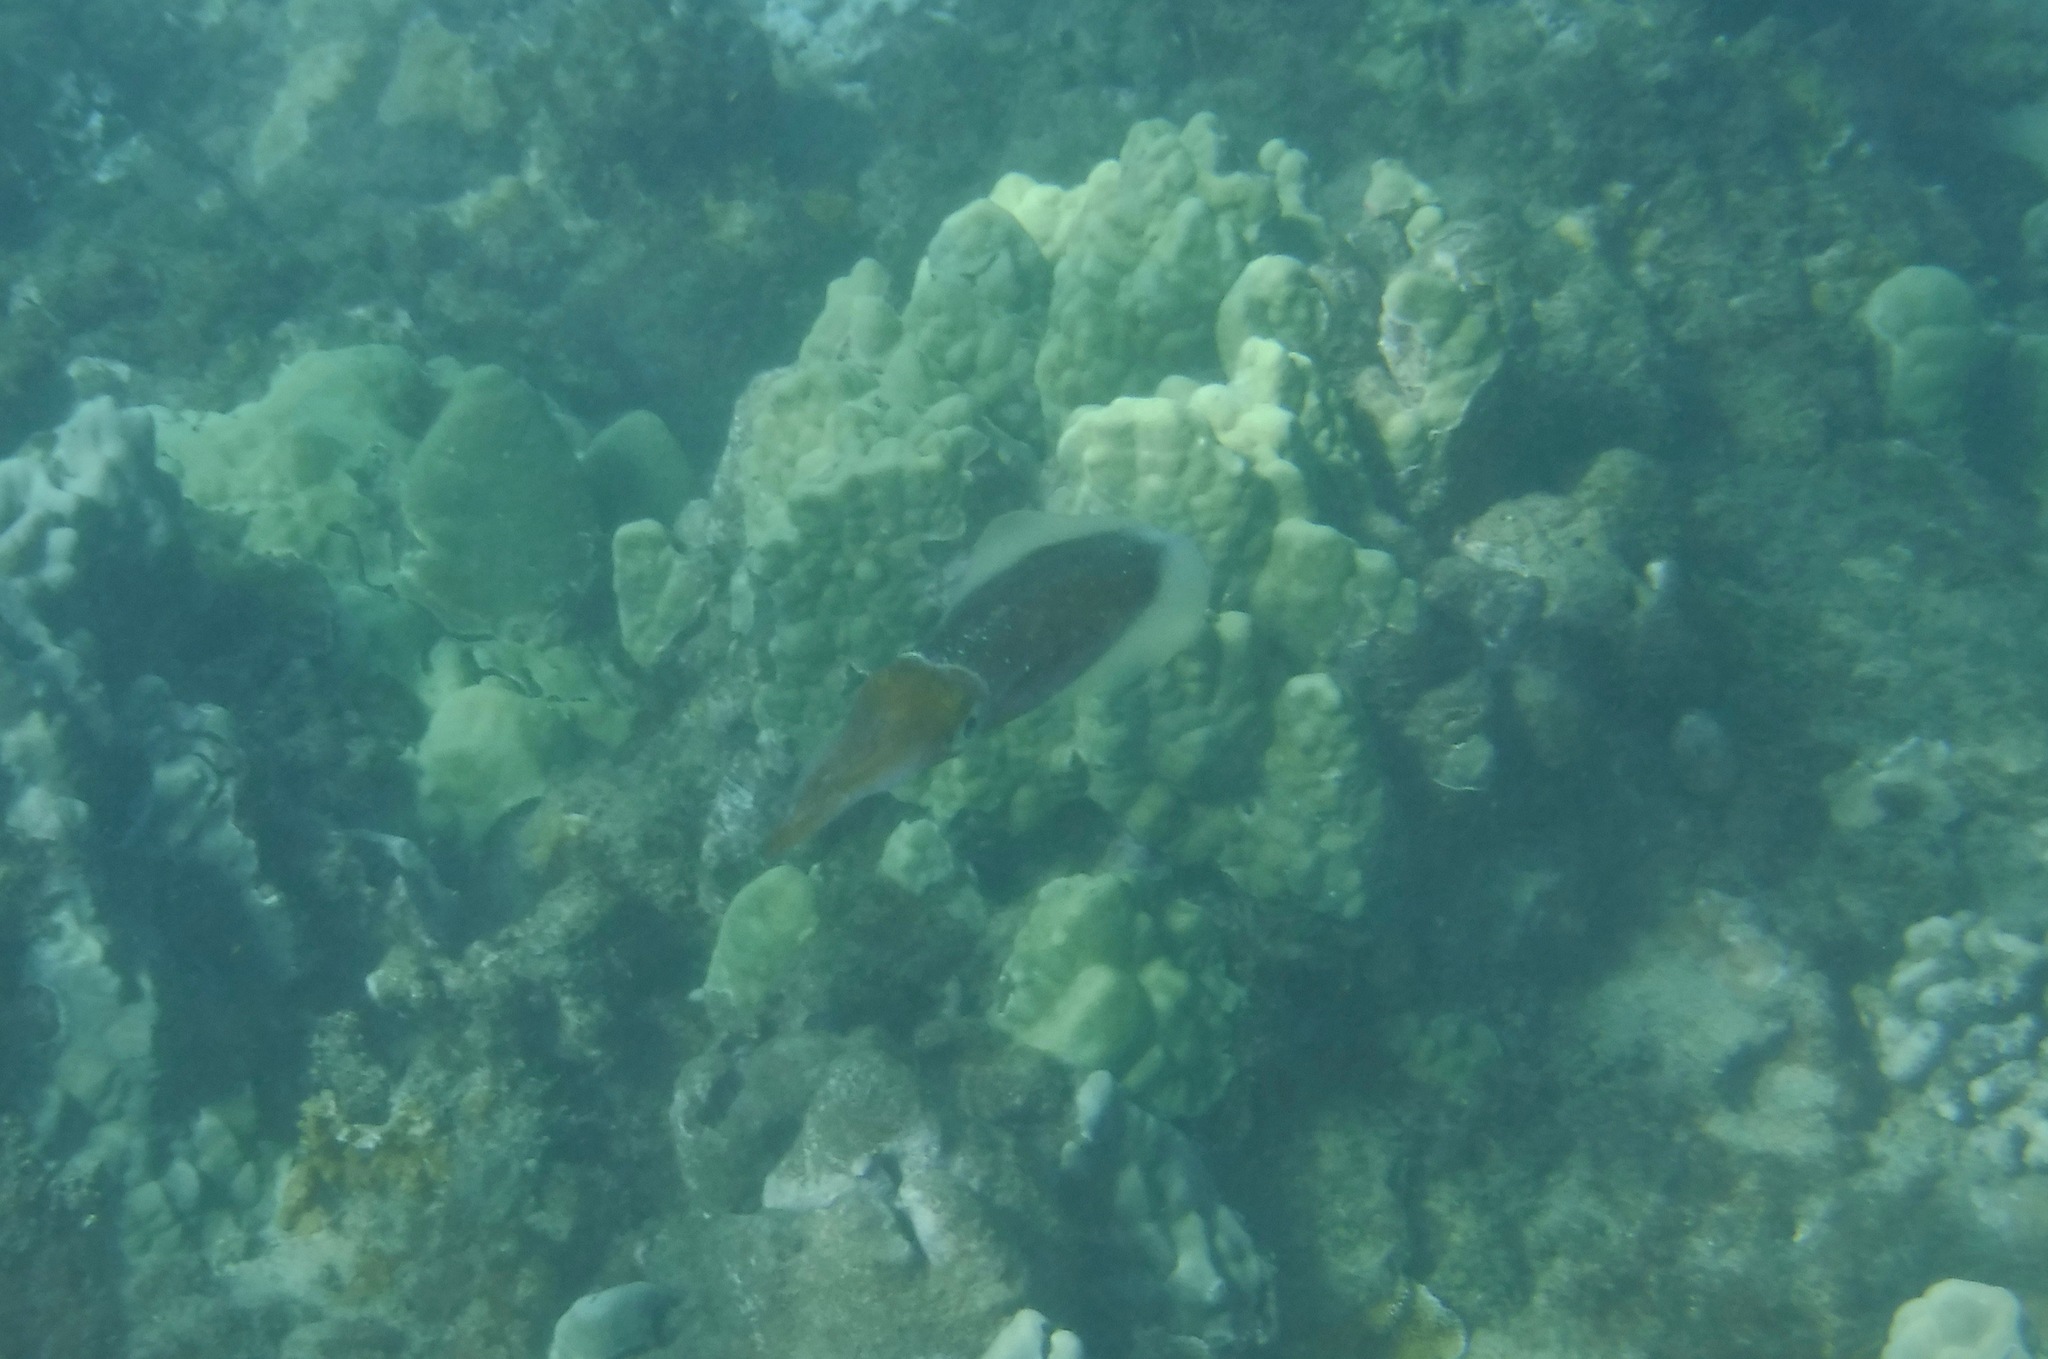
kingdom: Animalia
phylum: Mollusca
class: Cephalopoda
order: Myopsida
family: Loliginidae
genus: Sepioteuthis
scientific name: Sepioteuthis lessoniana
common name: Bigfin reef squid
